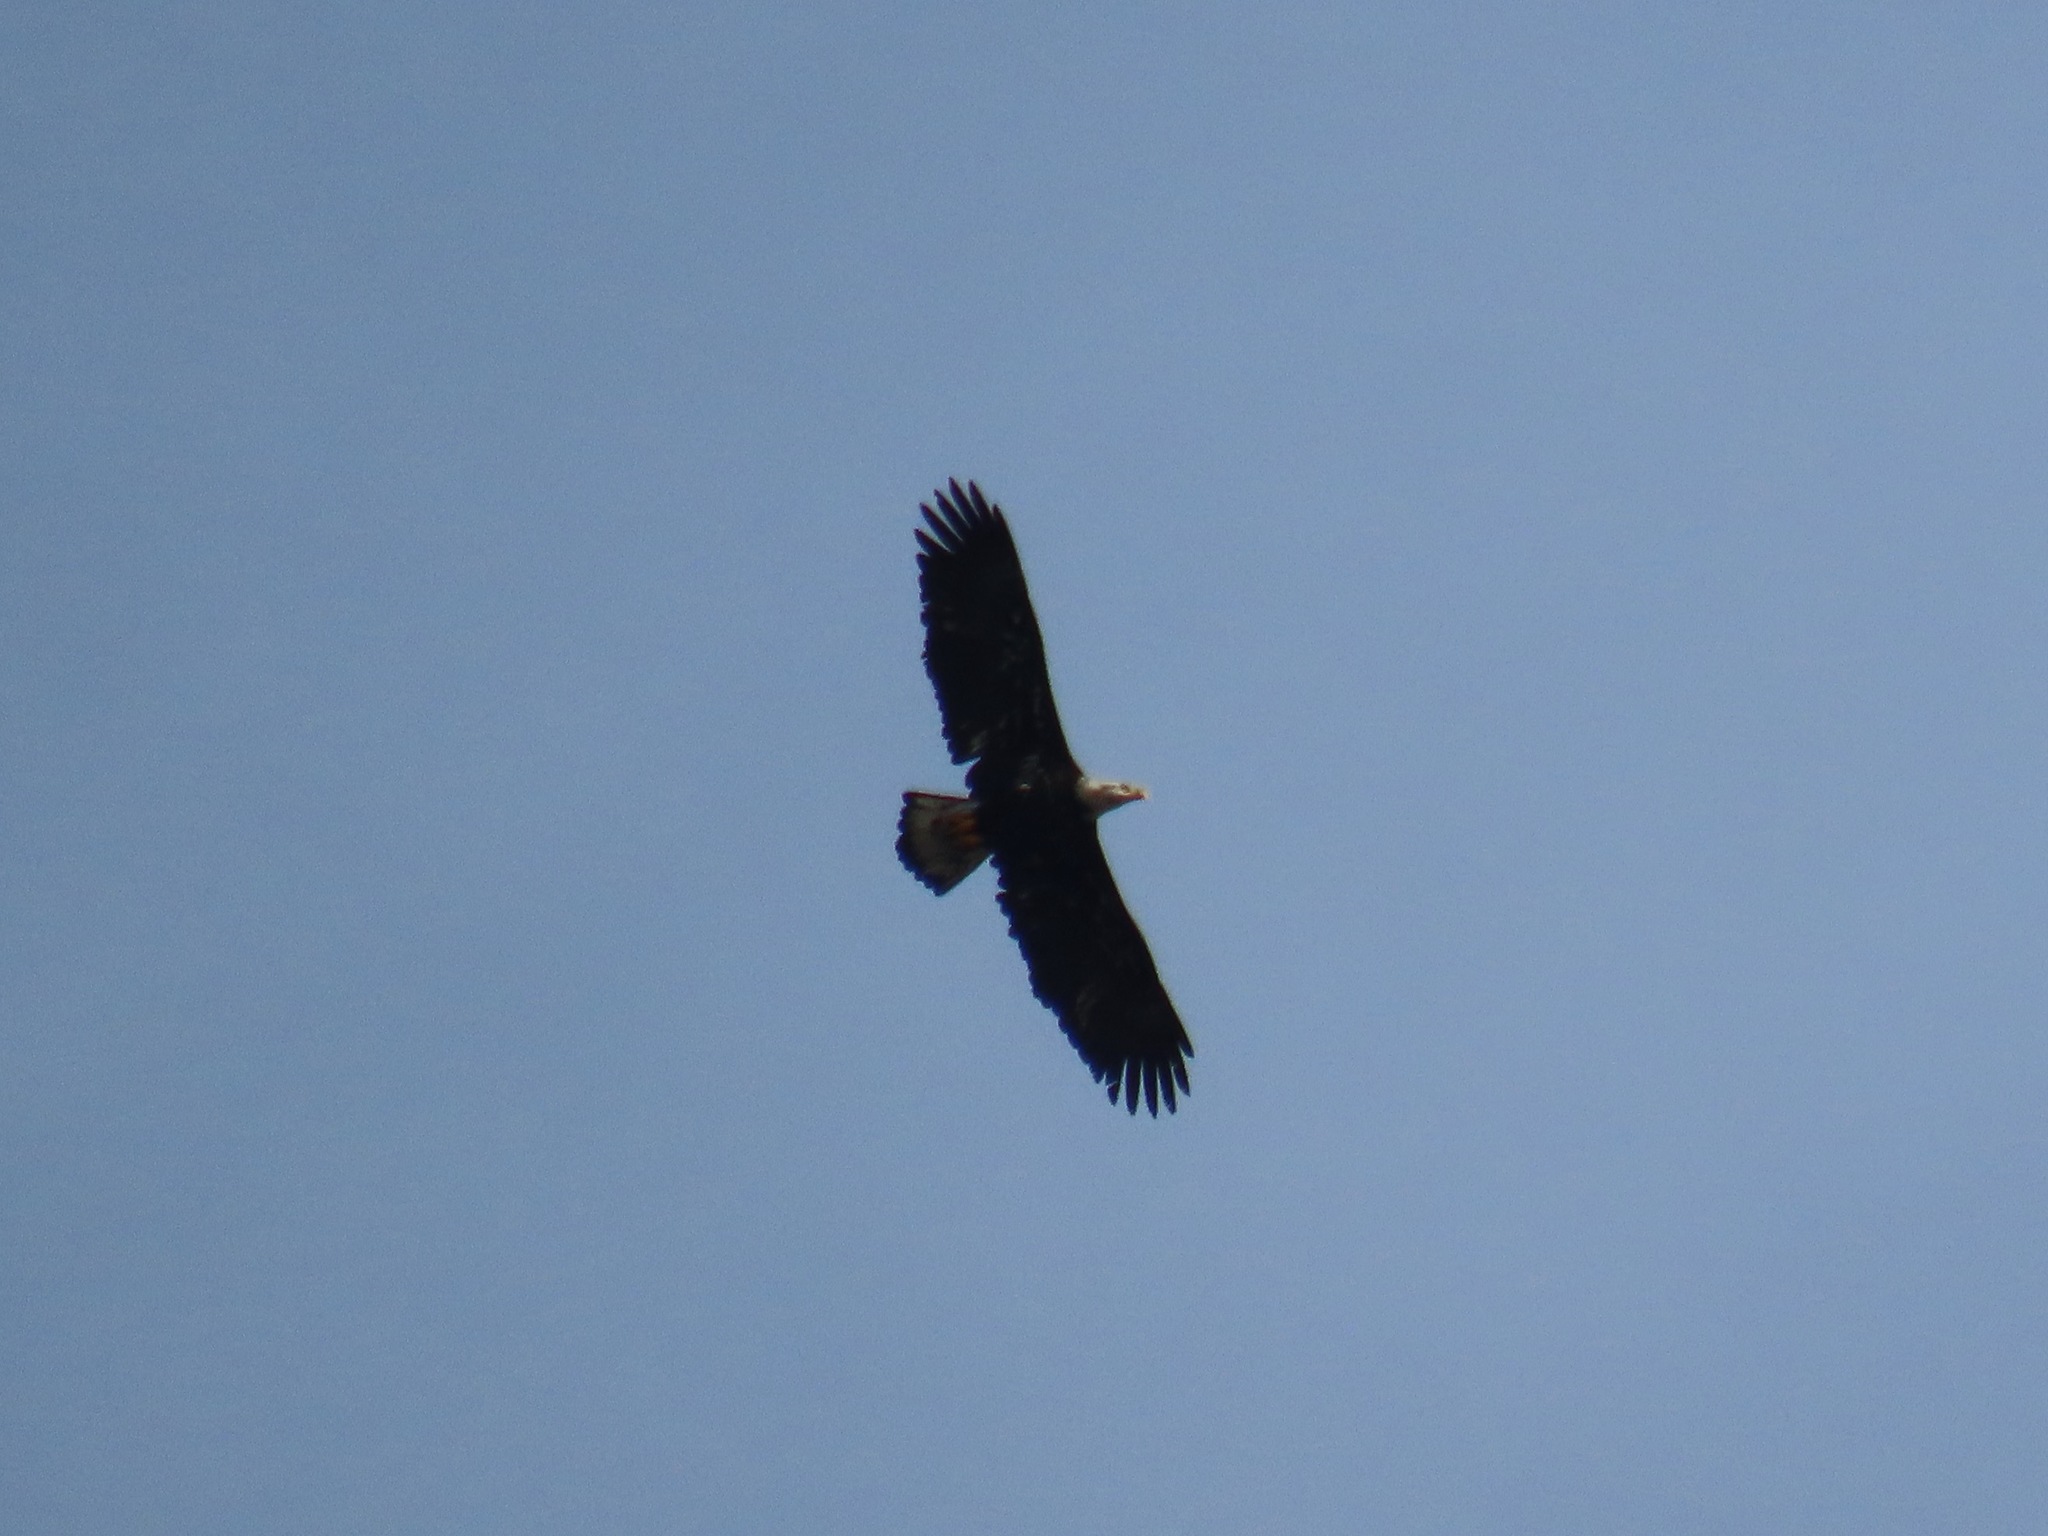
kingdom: Animalia
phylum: Chordata
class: Aves
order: Accipitriformes
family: Accipitridae
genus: Haliaeetus
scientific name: Haliaeetus leucocephalus
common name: Bald eagle
